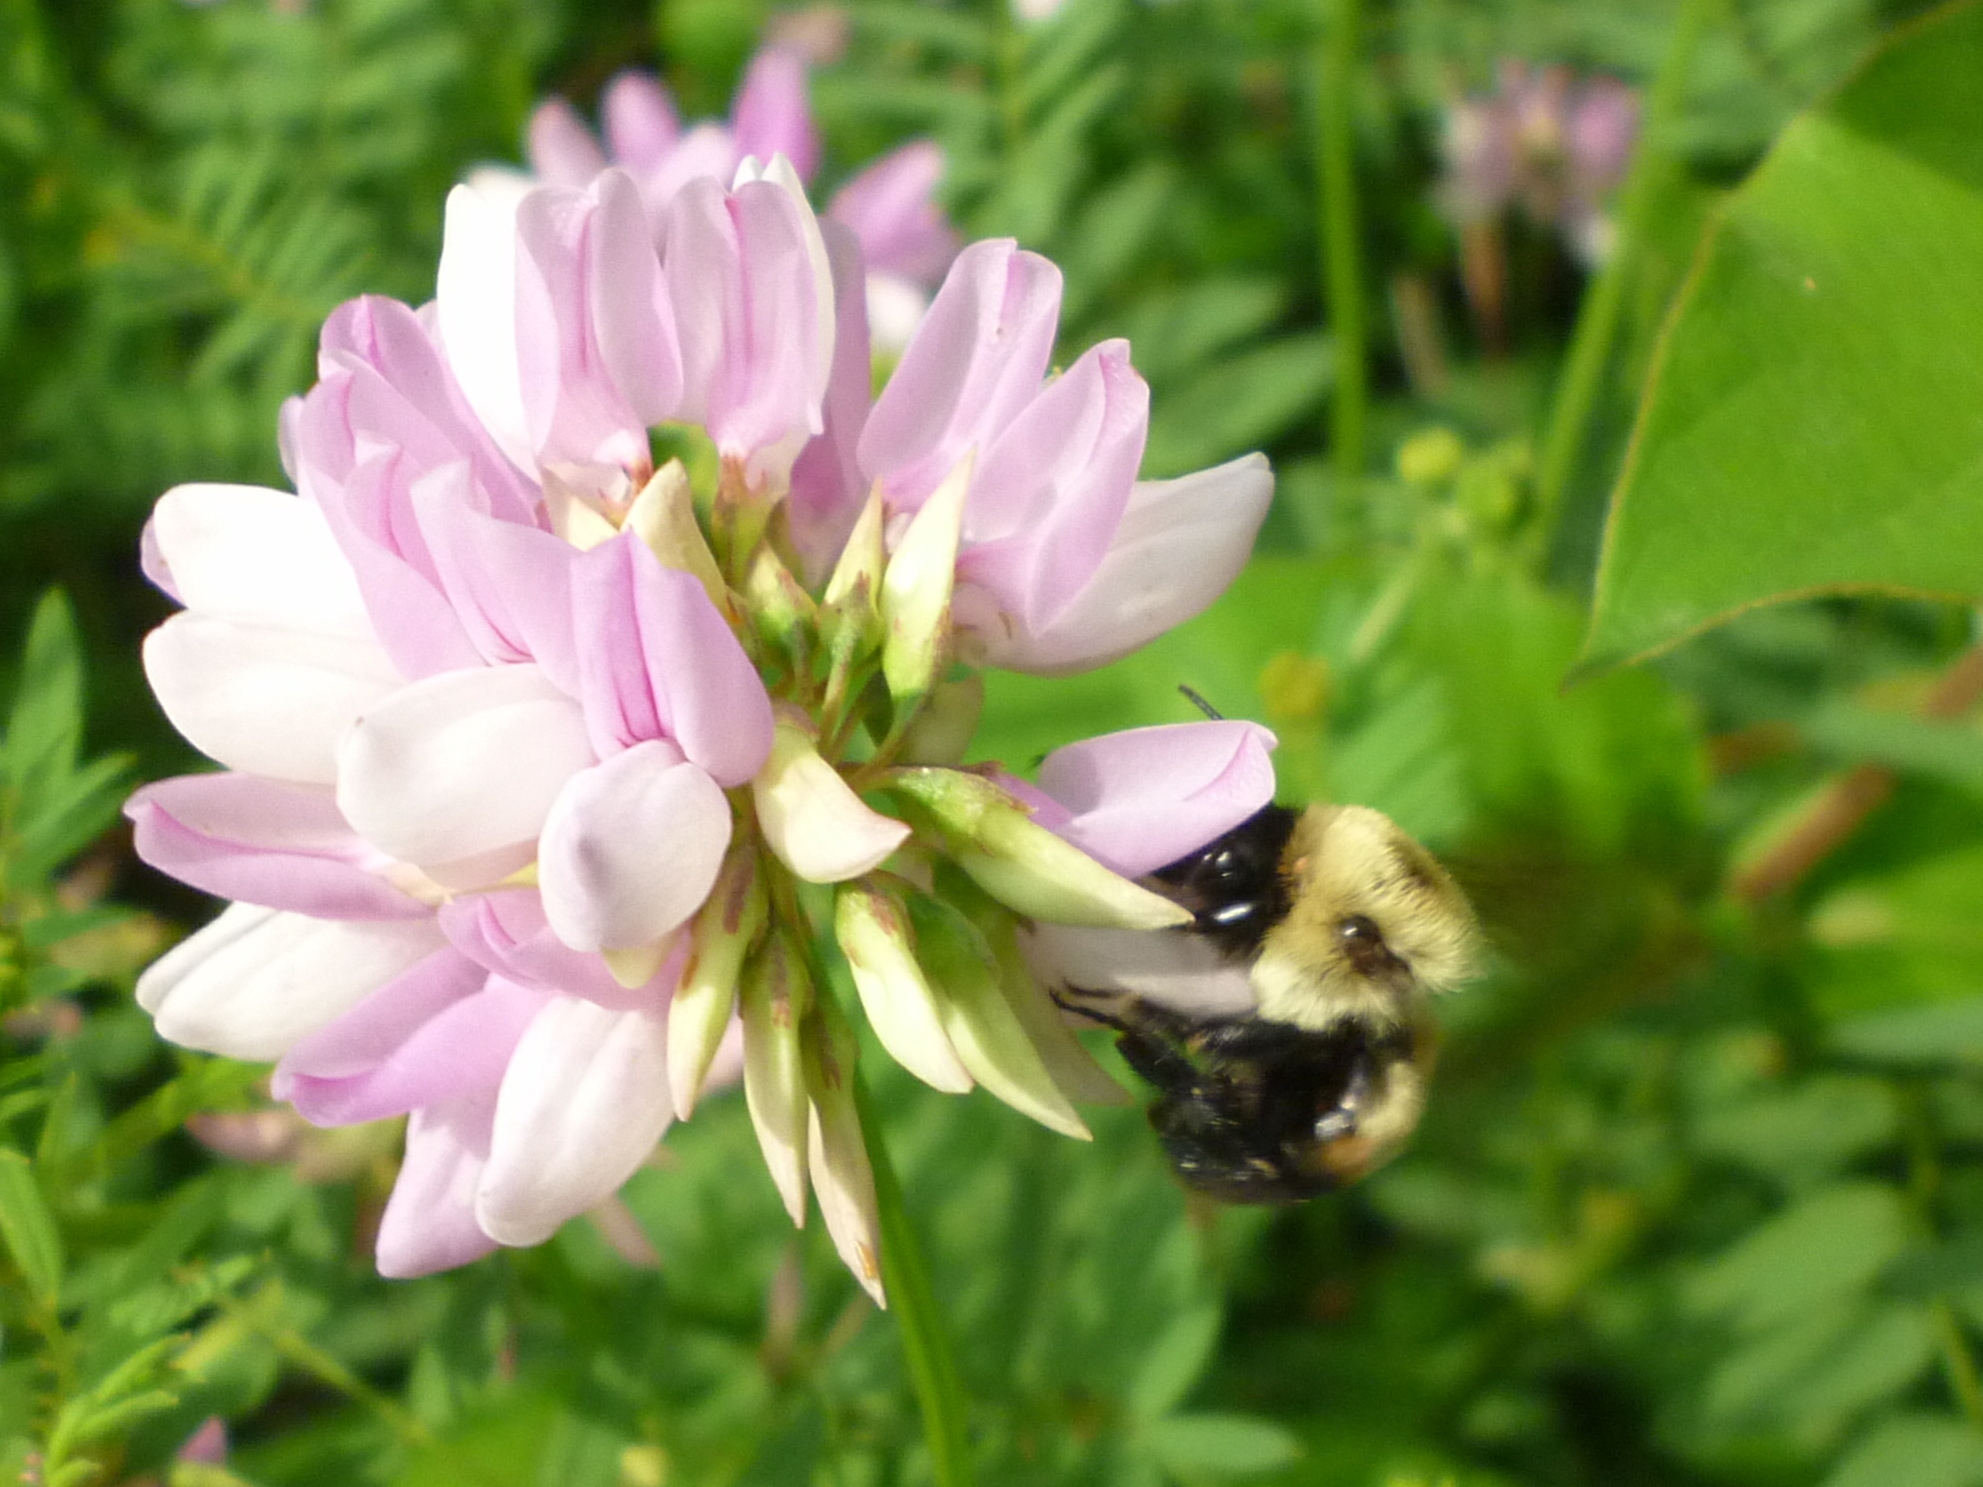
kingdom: Animalia
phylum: Arthropoda
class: Insecta
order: Hymenoptera
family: Apidae
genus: Bombus
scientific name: Bombus griseocollis
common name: Brown-belted bumble bee
